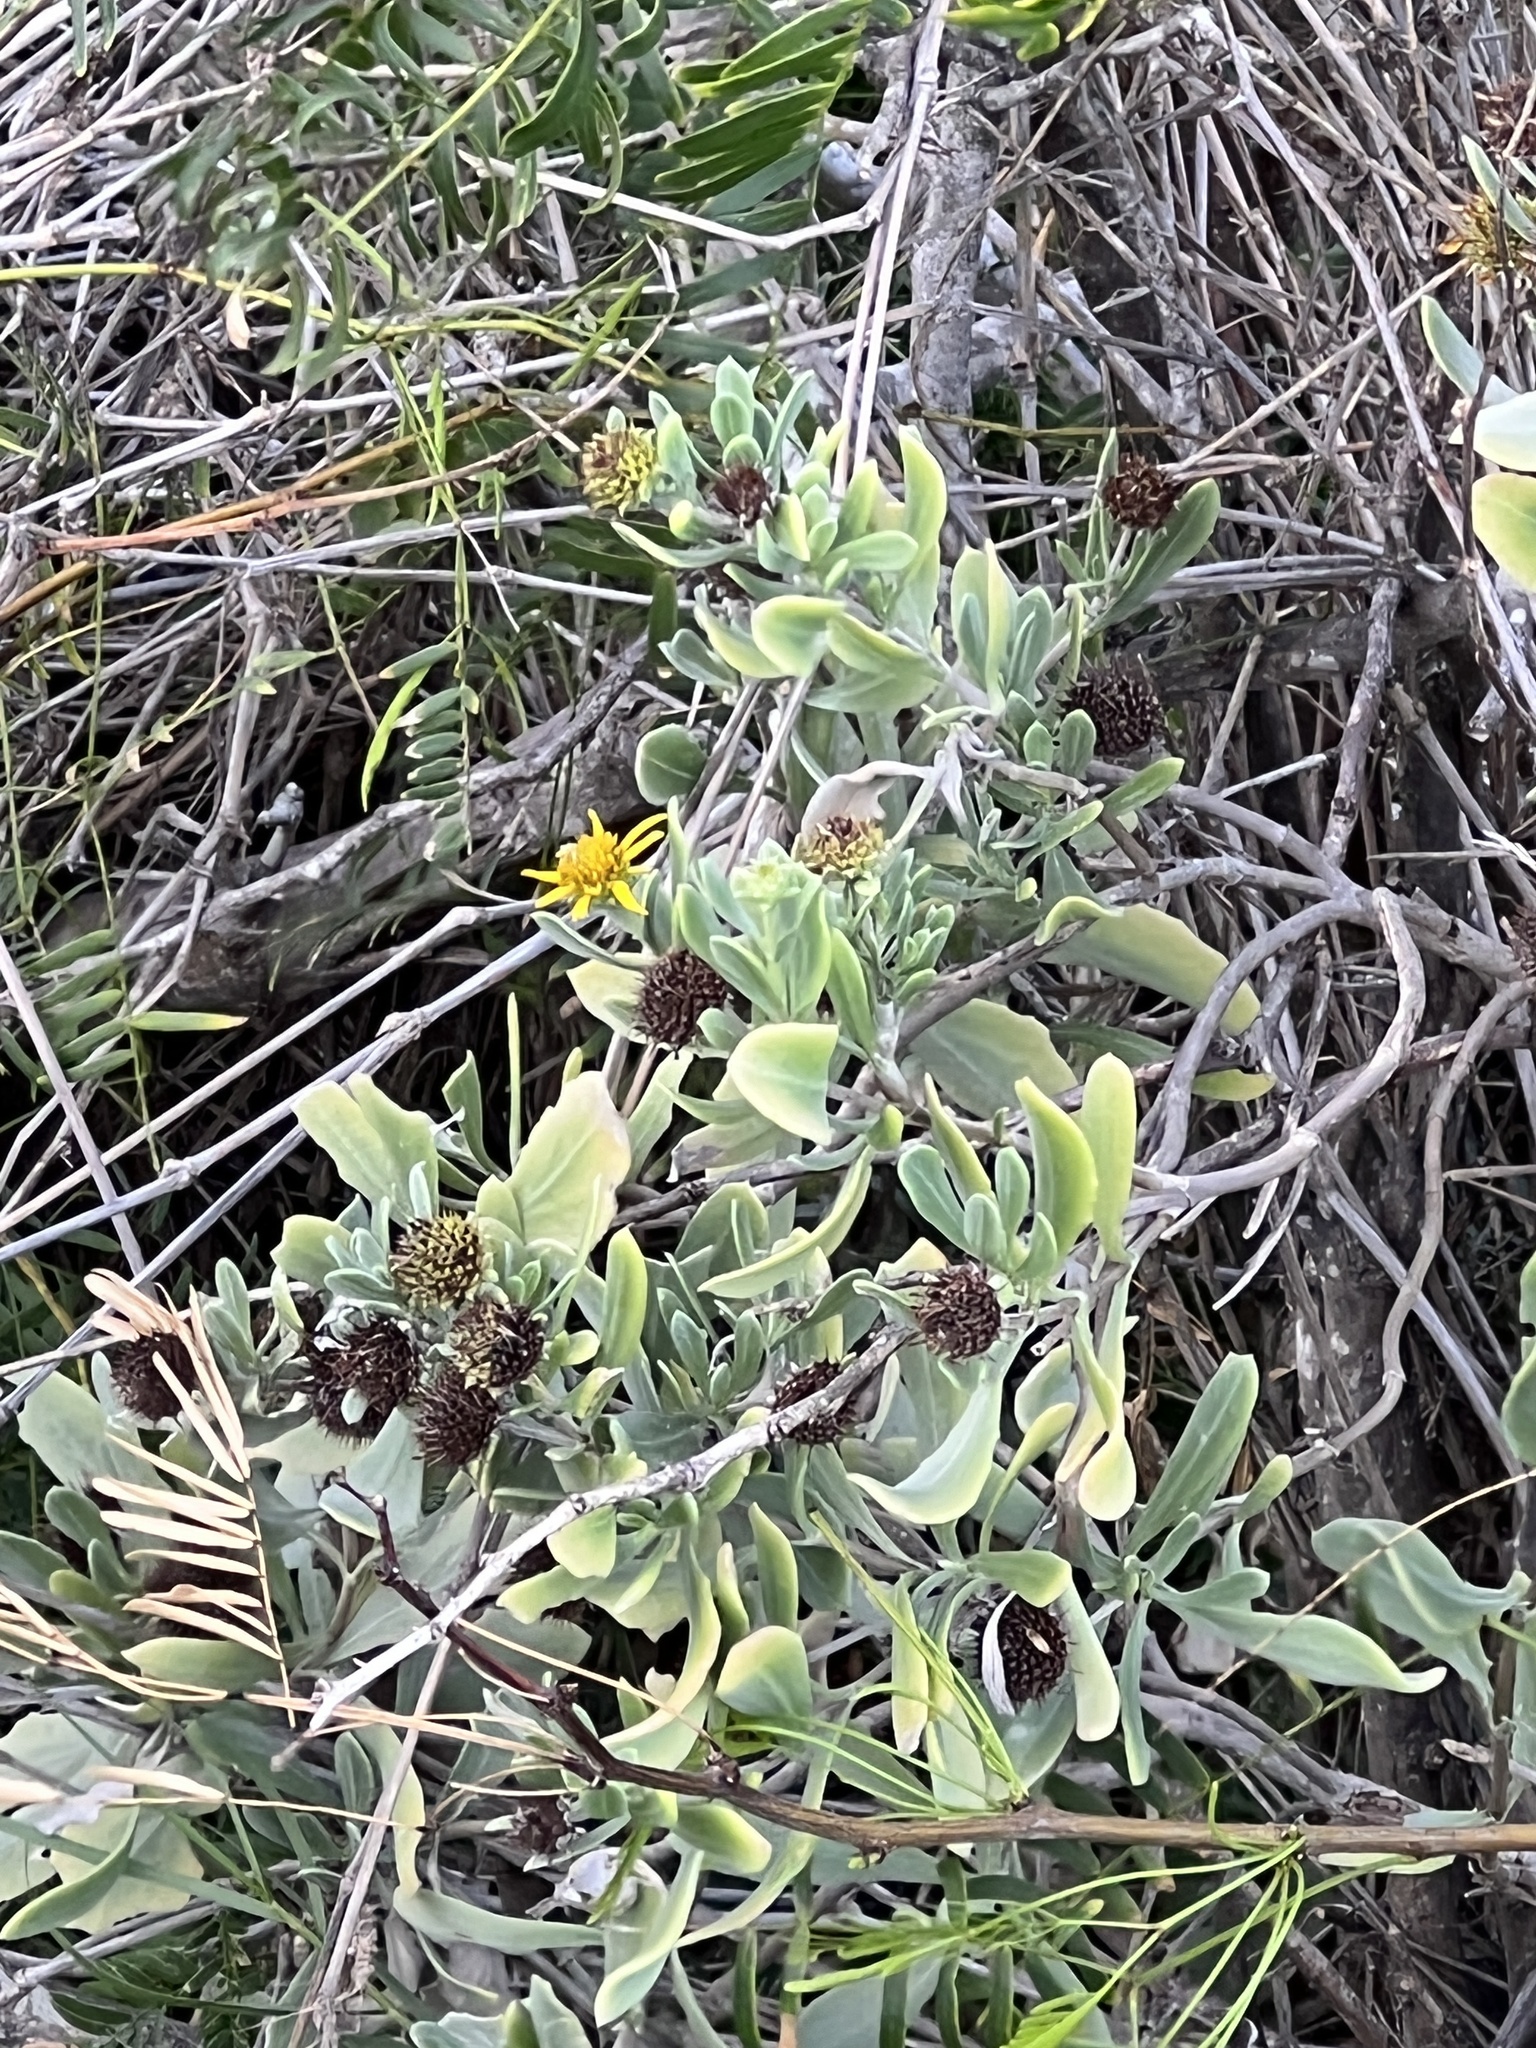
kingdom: Plantae
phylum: Tracheophyta
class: Magnoliopsida
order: Asterales
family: Asteraceae
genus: Borrichia
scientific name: Borrichia frutescens
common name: Sea oxeye
